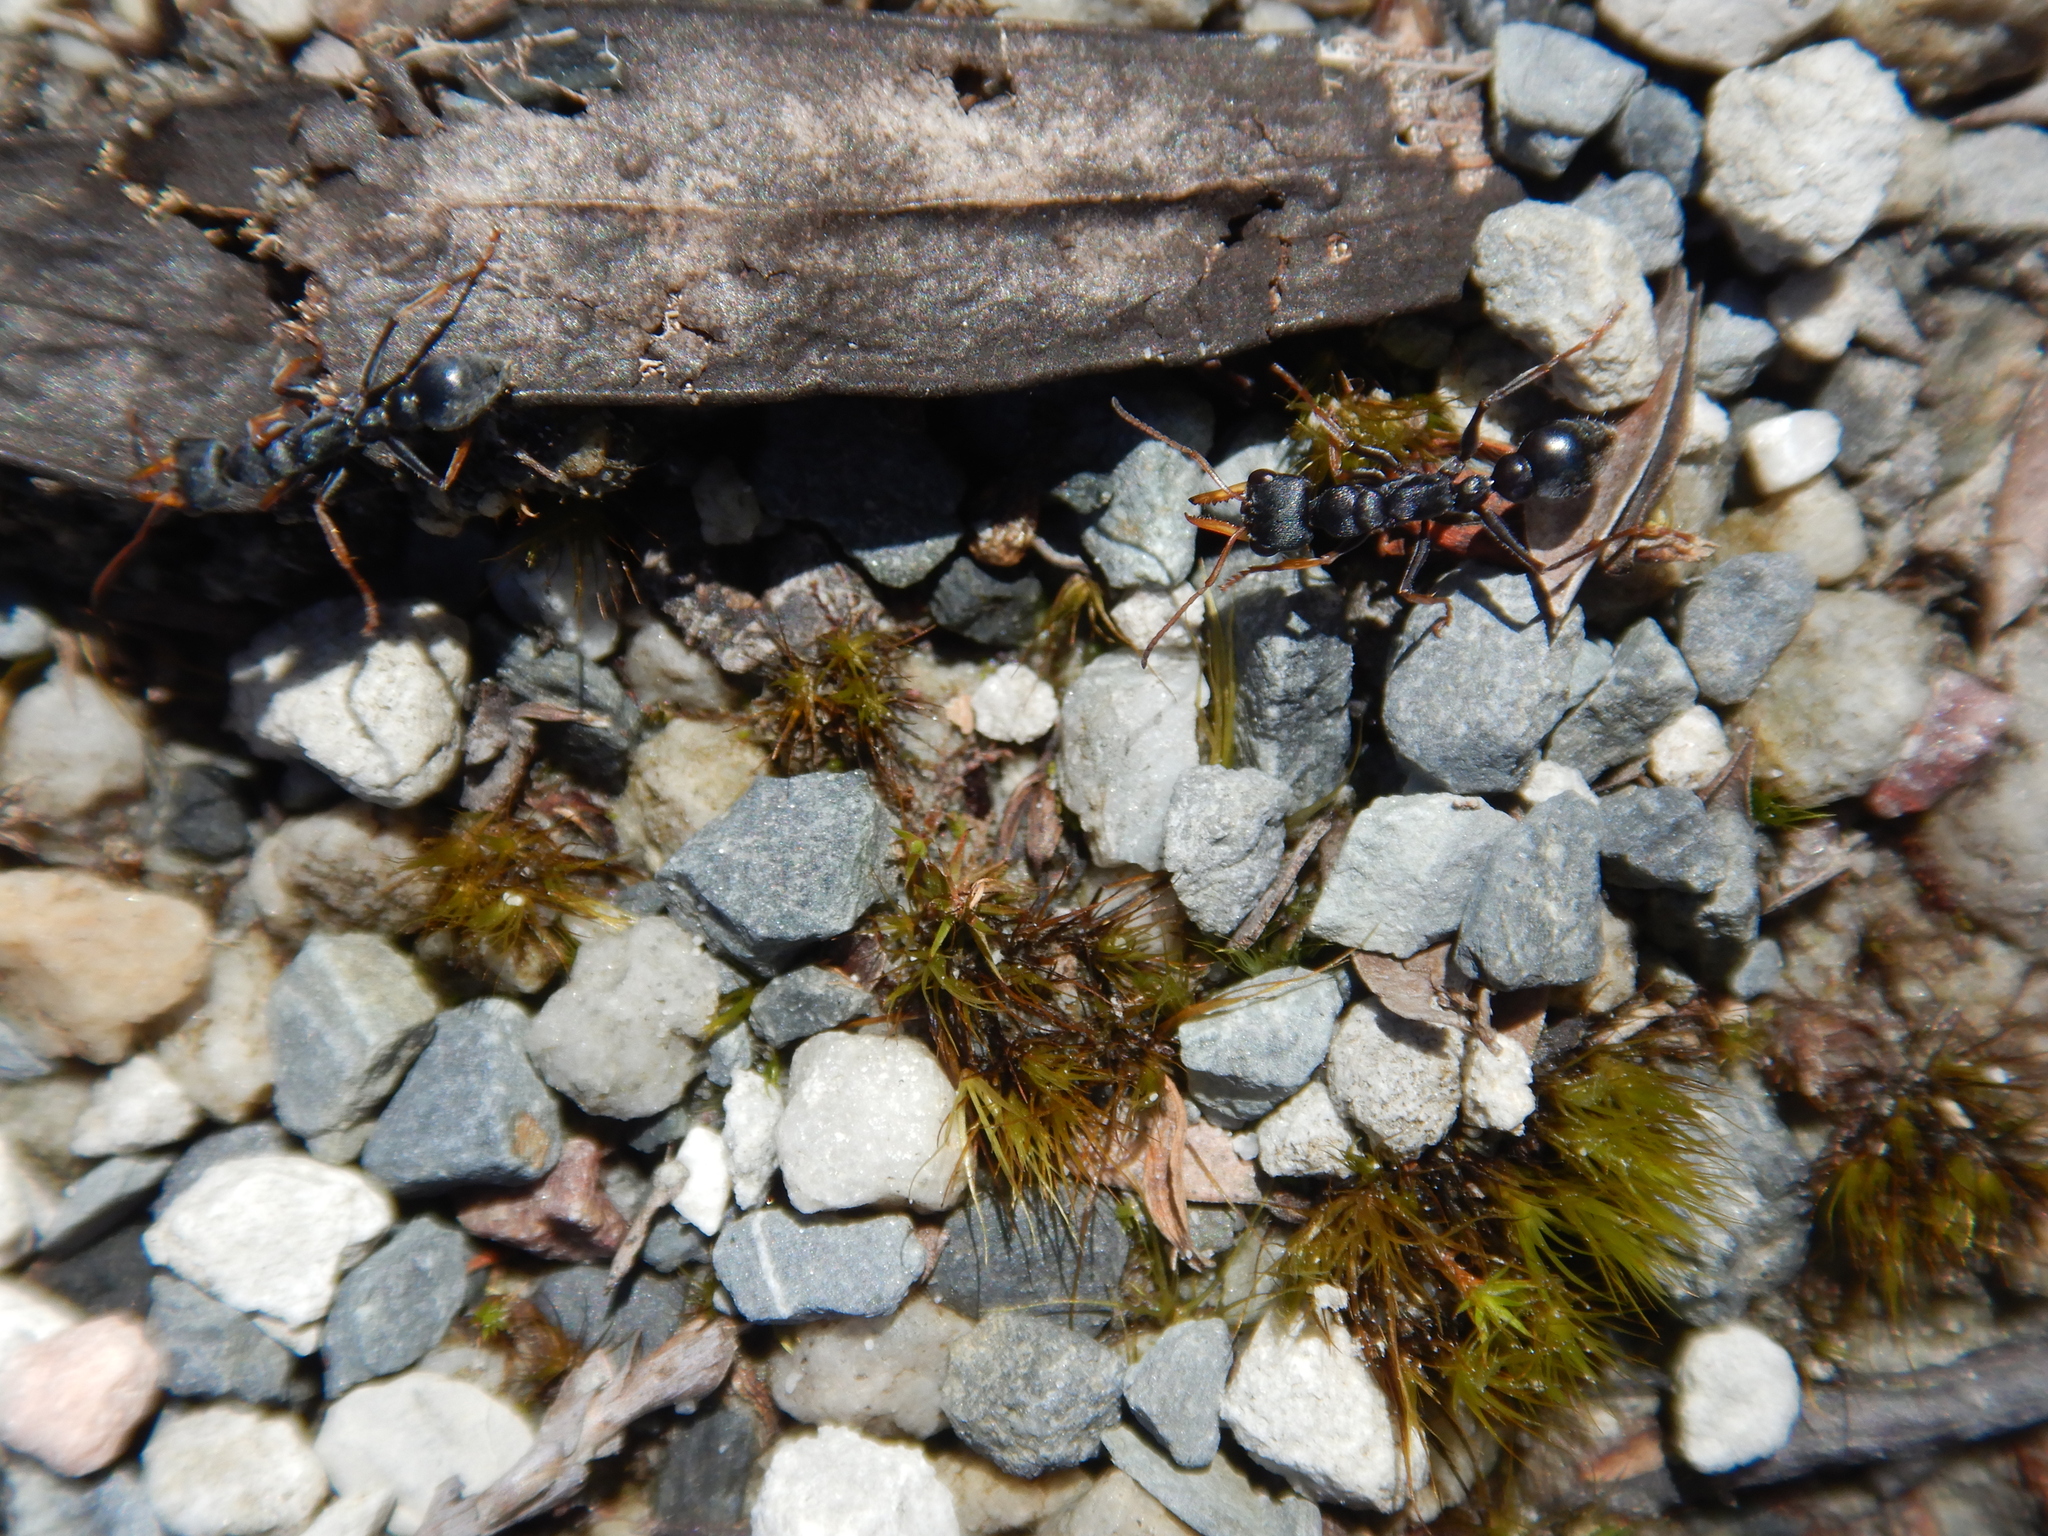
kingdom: Animalia
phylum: Arthropoda
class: Insecta
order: Hymenoptera
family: Formicidae
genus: Myrmecia
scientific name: Myrmecia pilosula
